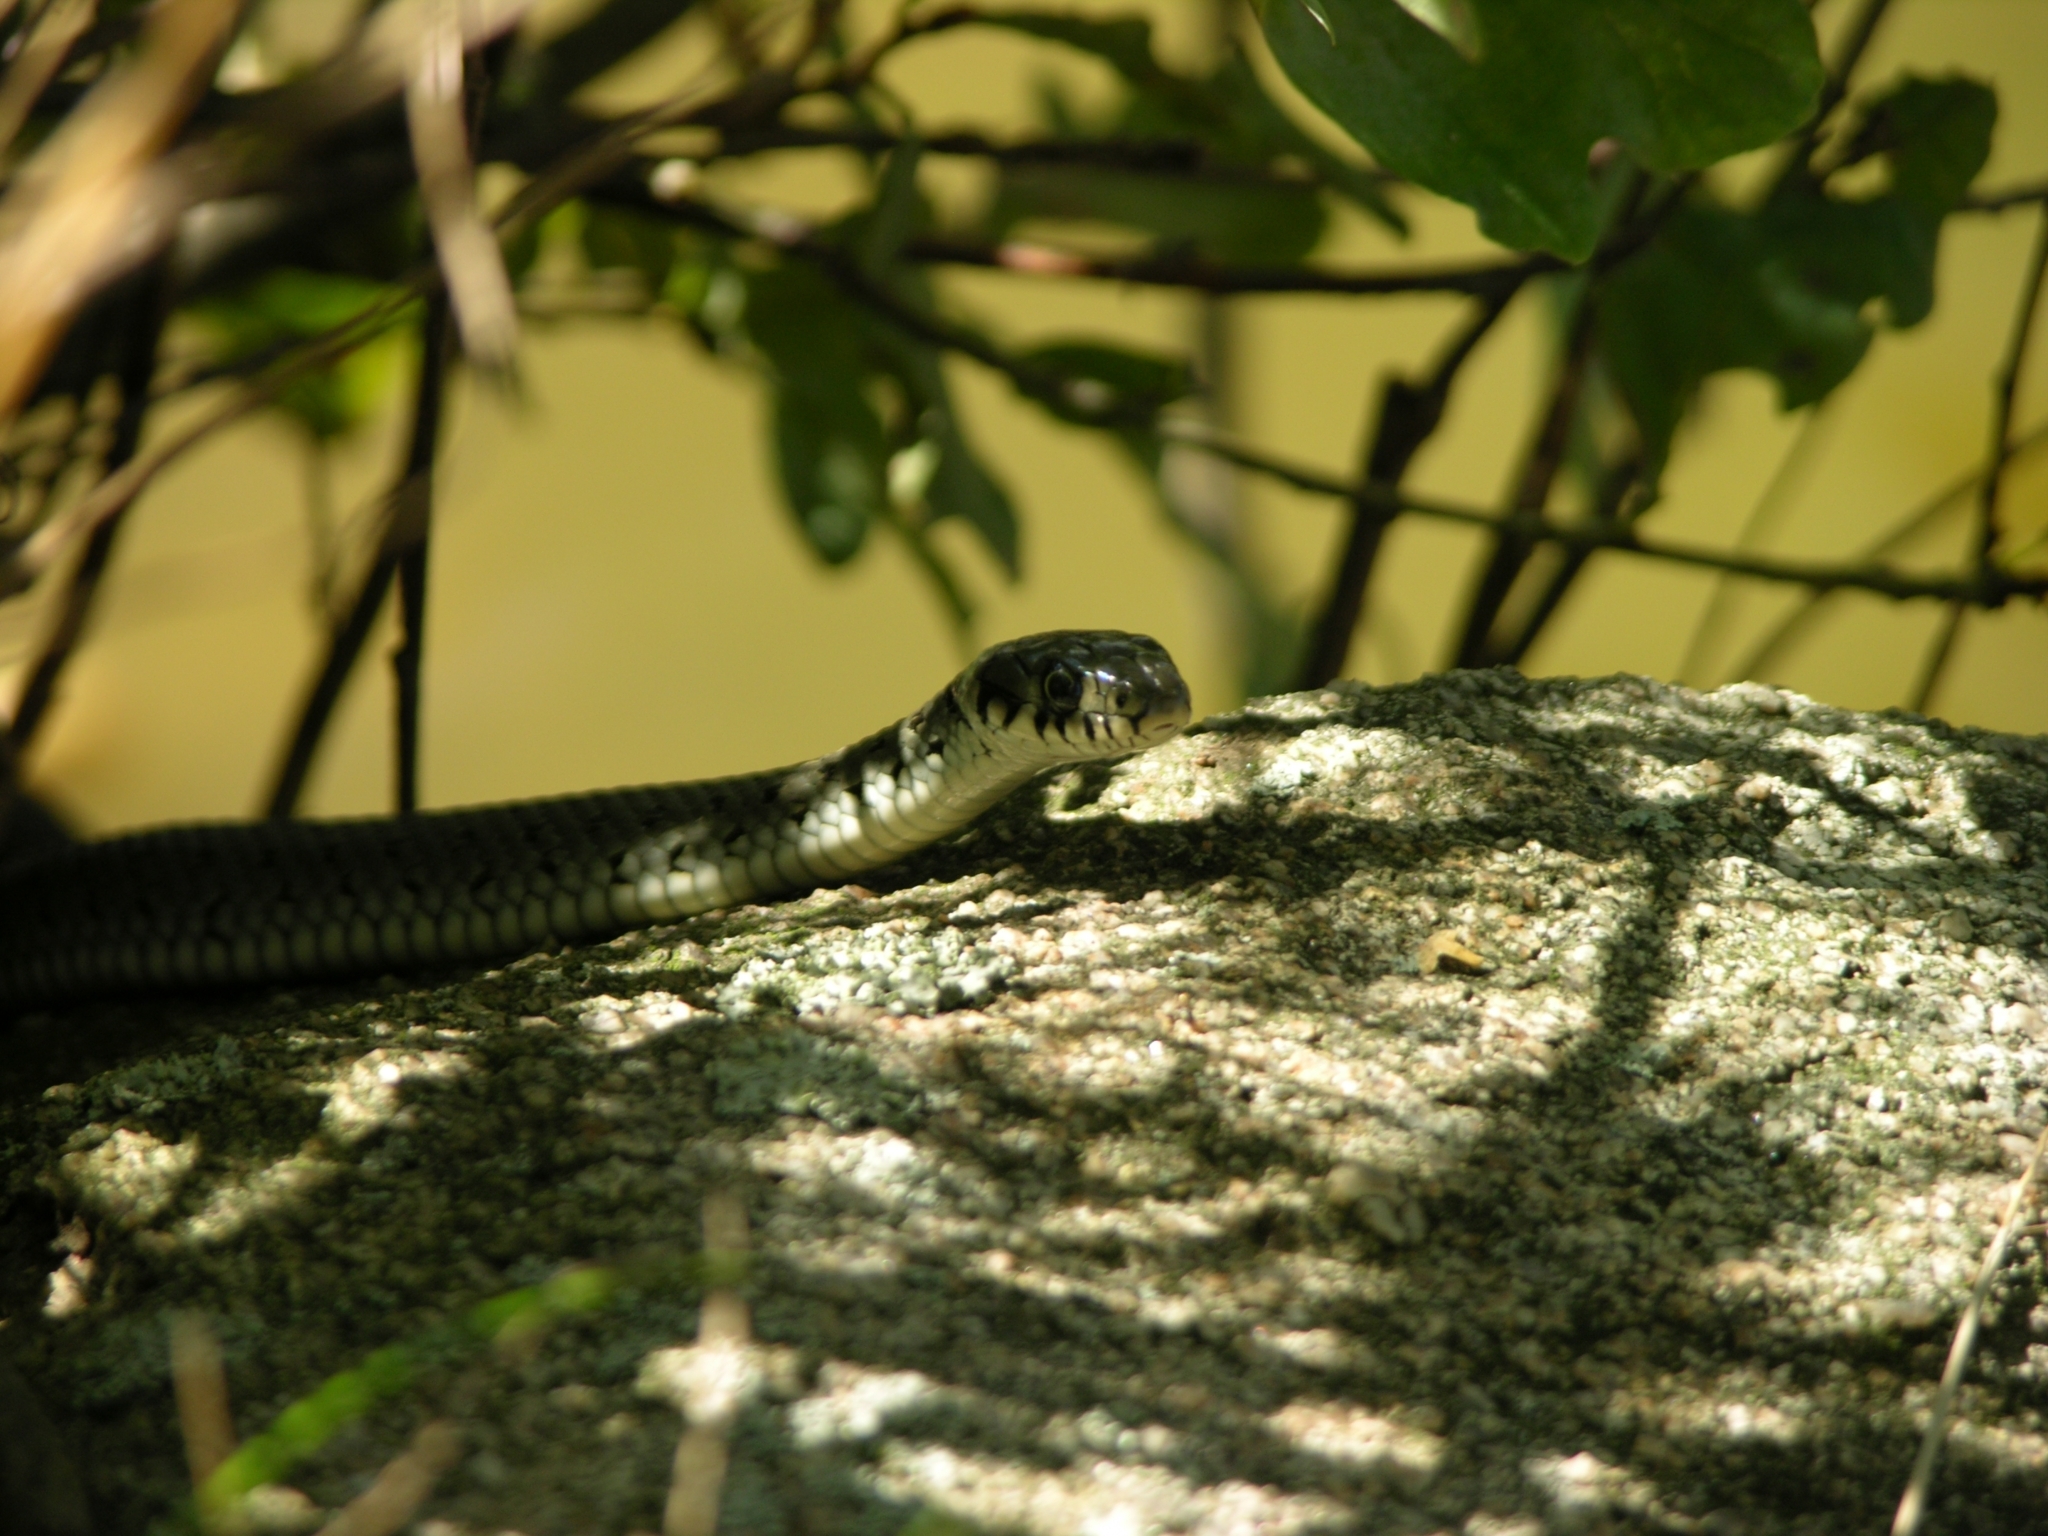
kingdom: Animalia
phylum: Chordata
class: Squamata
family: Colubridae
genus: Natrix
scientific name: Natrix natrix
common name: Grass snake
